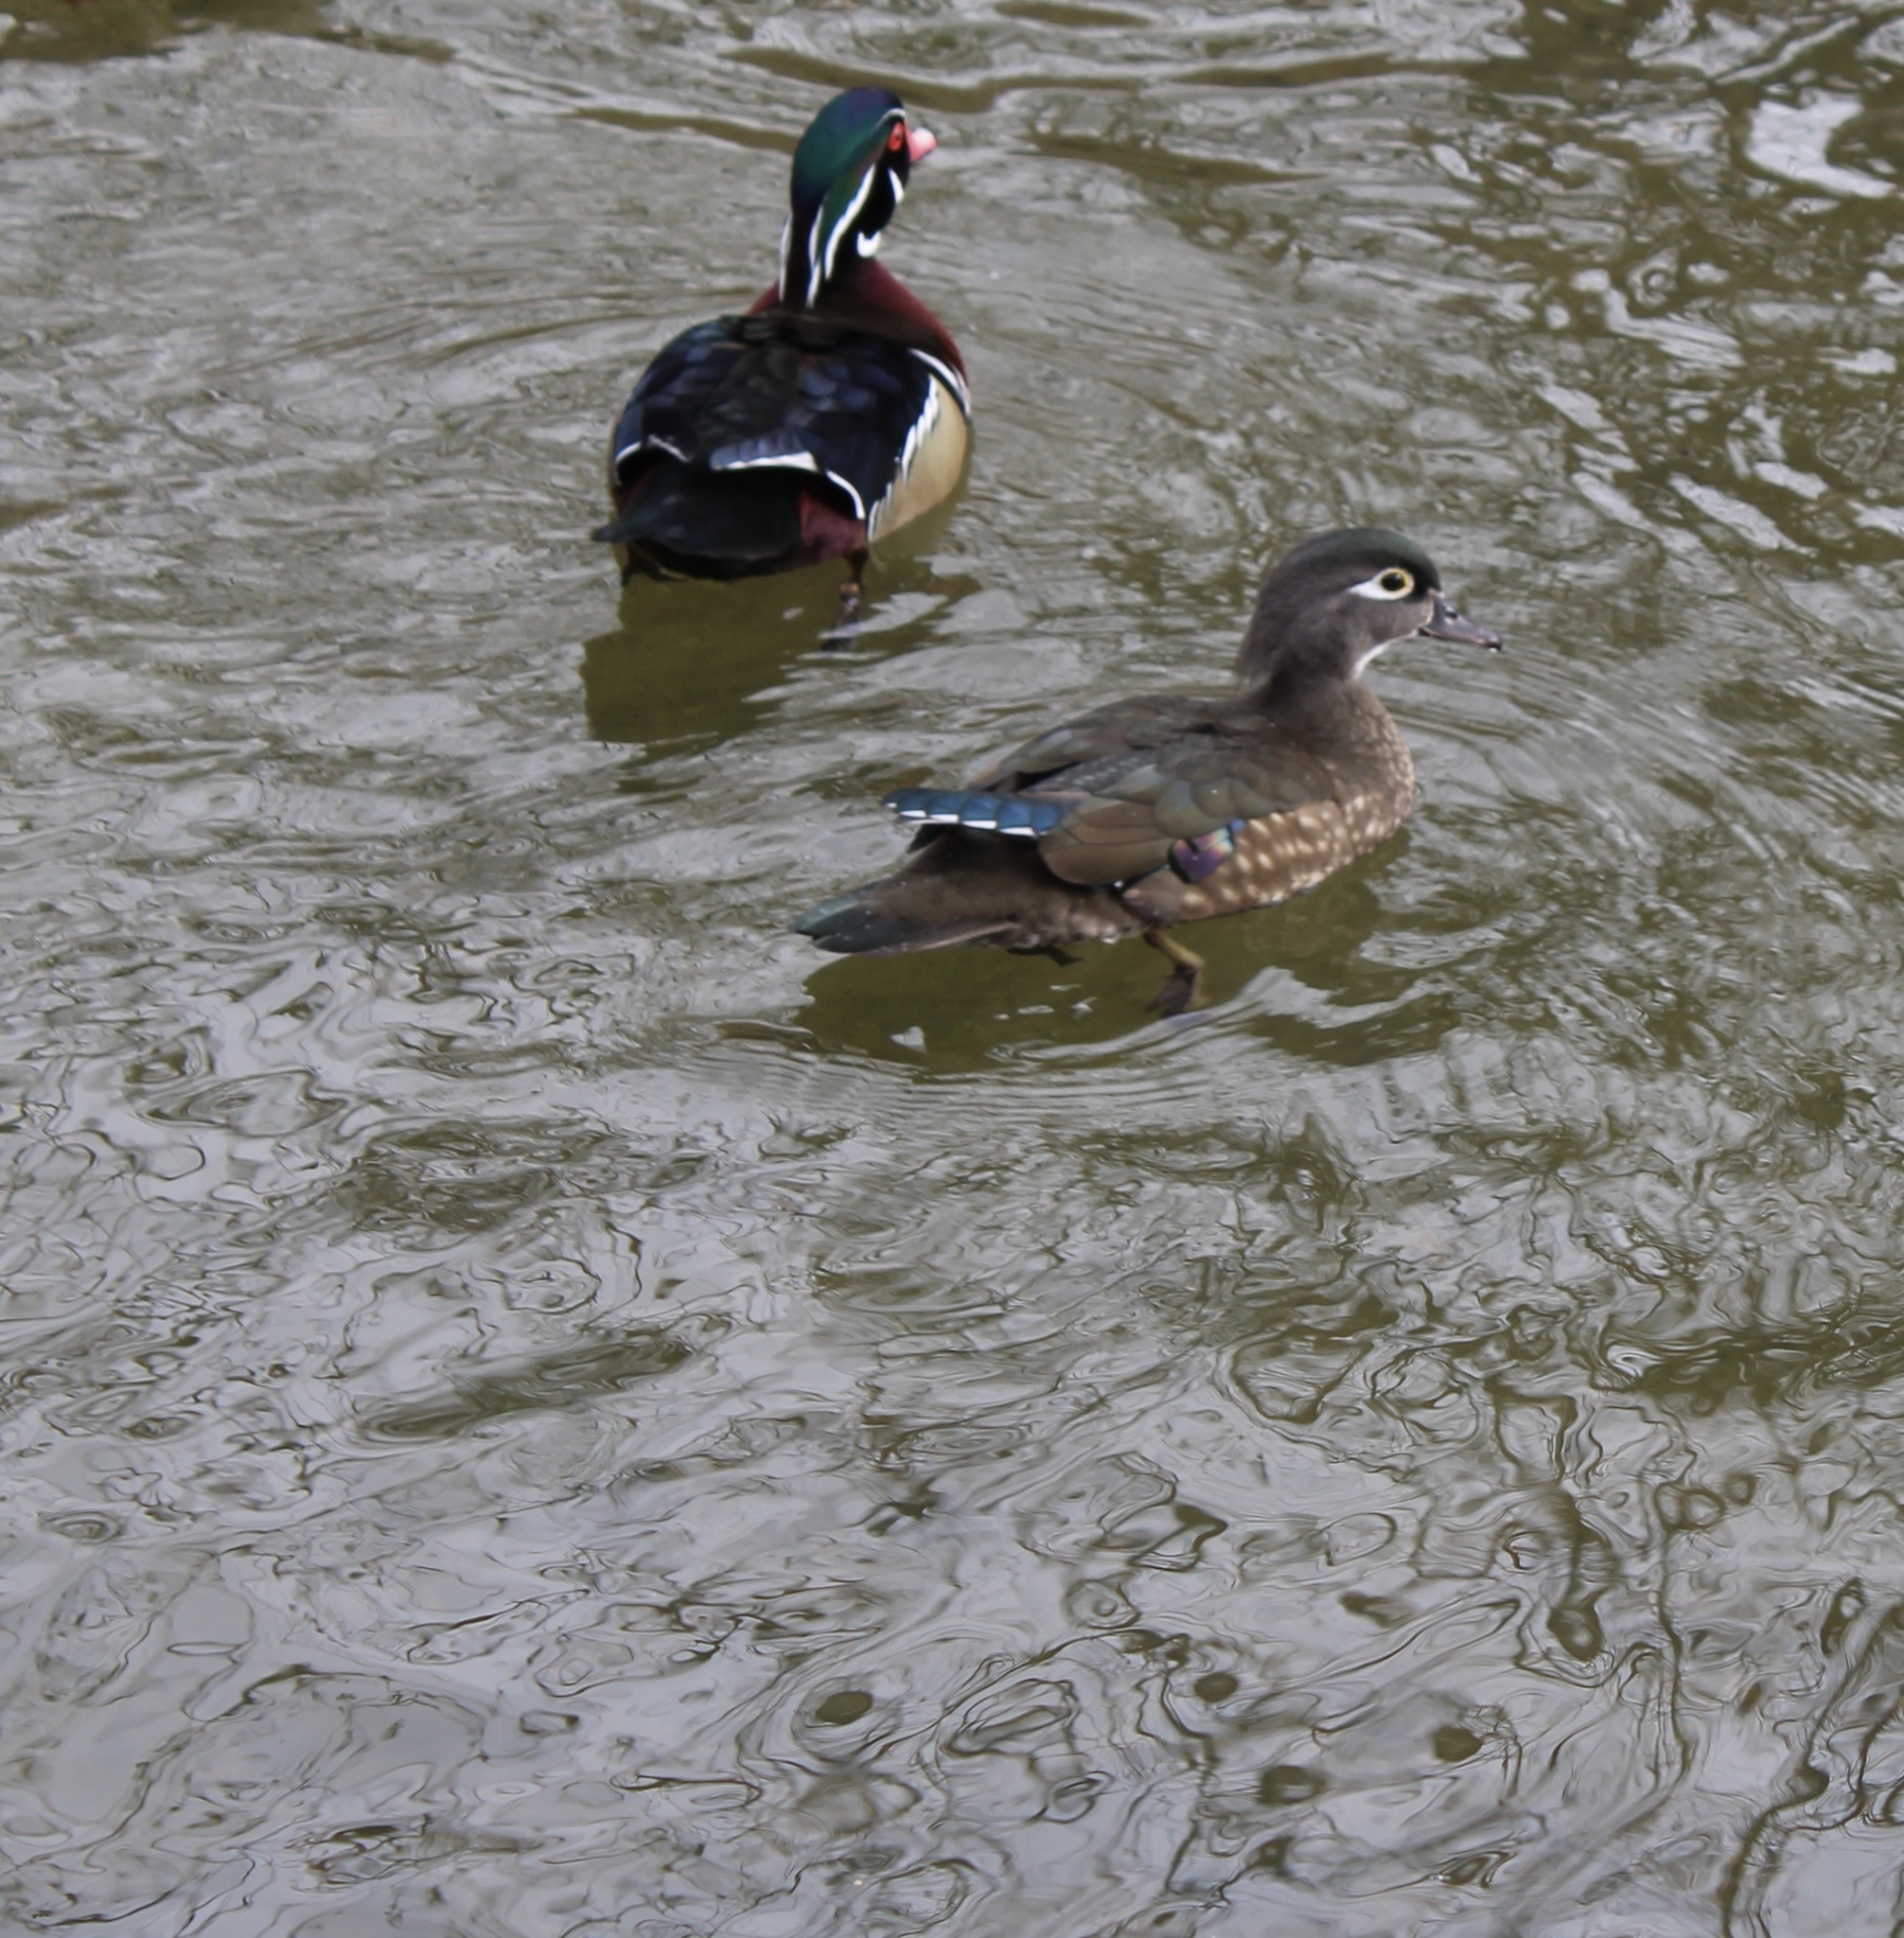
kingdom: Animalia
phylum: Chordata
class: Aves
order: Anseriformes
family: Anatidae
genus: Aix
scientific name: Aix sponsa
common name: Wood duck
